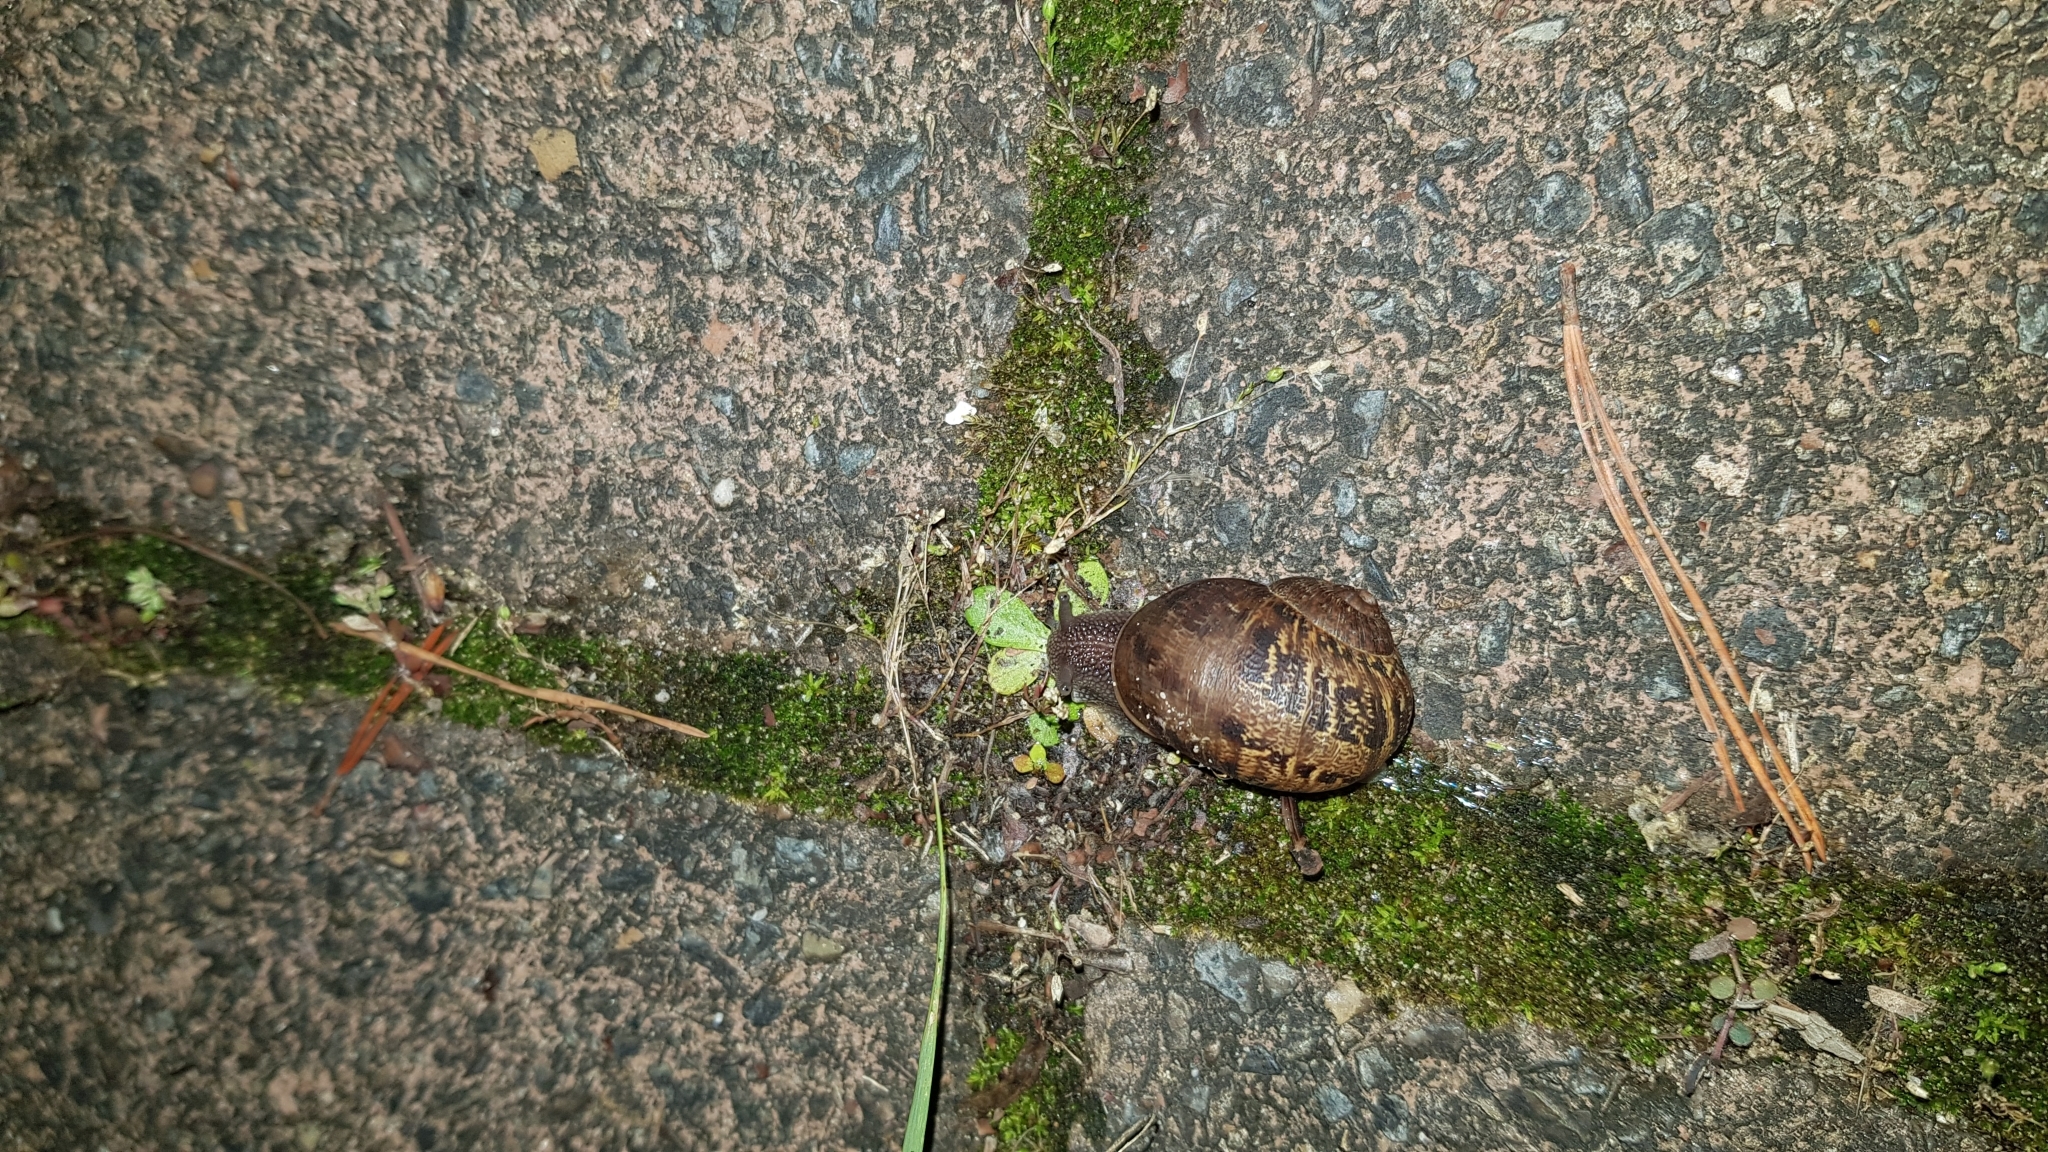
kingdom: Animalia
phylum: Mollusca
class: Gastropoda
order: Stylommatophora
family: Helicidae
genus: Cornu
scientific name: Cornu aspersum
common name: Brown garden snail
